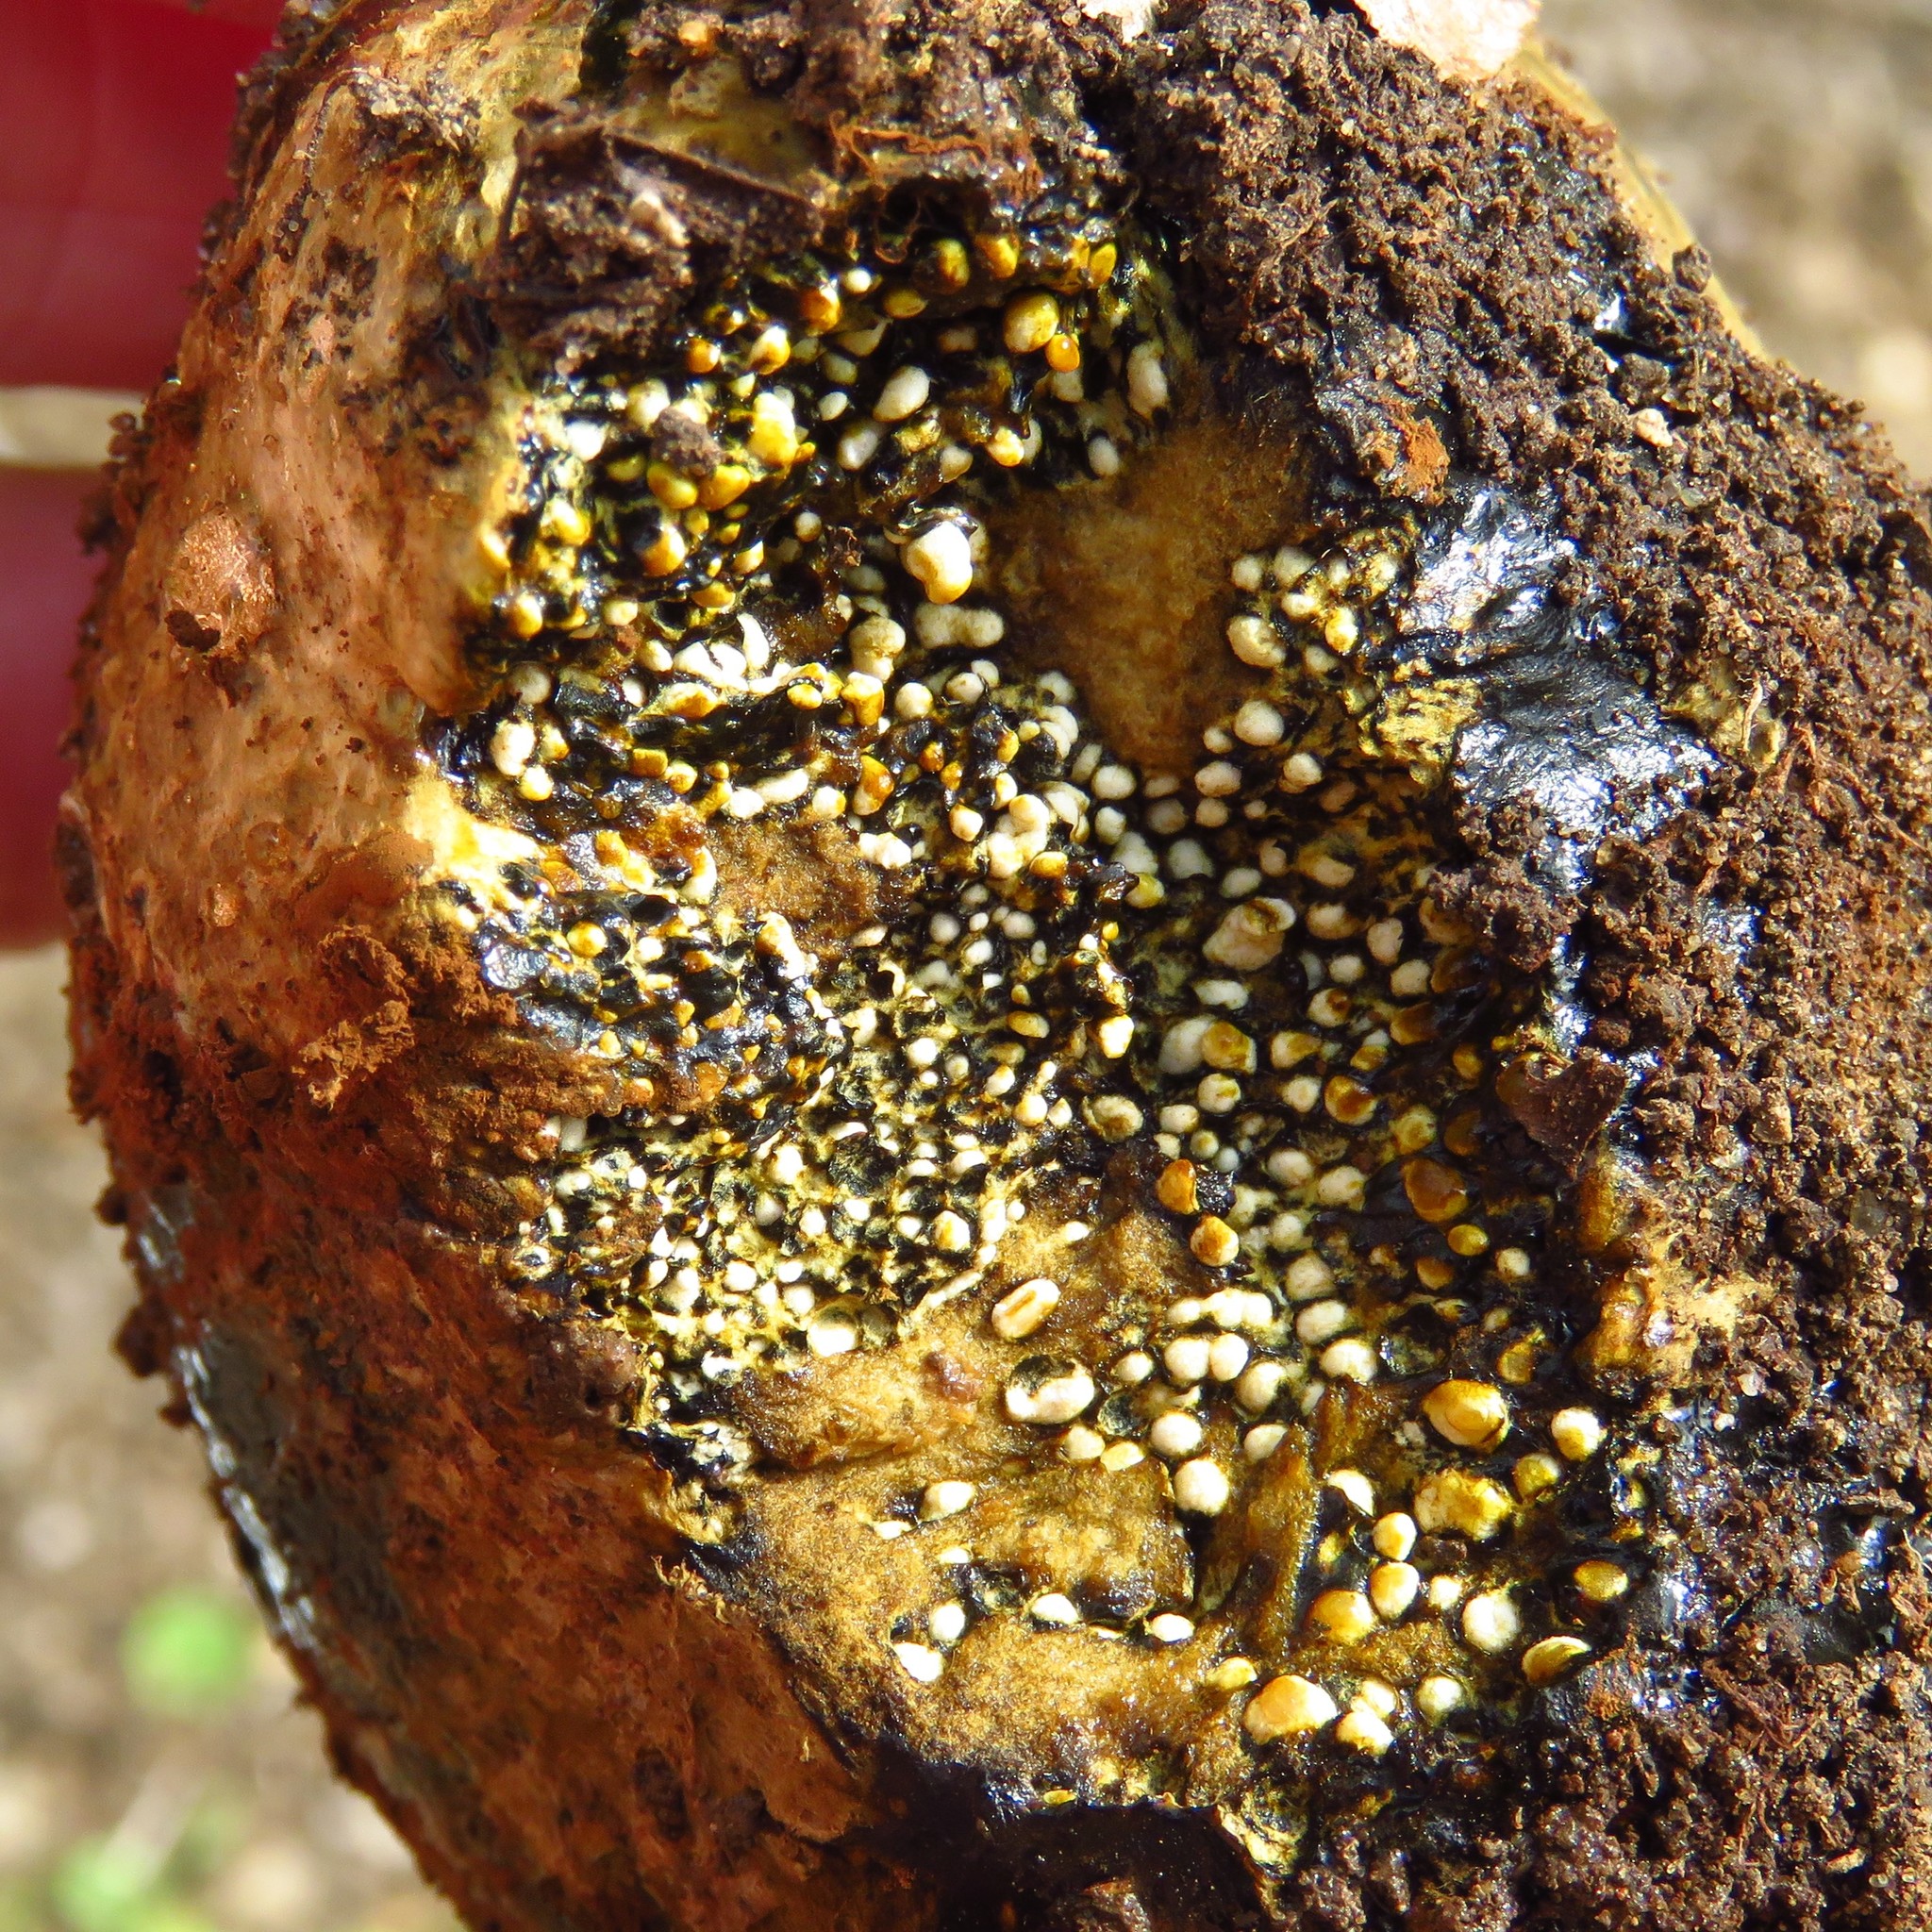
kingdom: Fungi
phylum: Basidiomycota
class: Agaricomycetes
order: Boletales
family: Sclerodermataceae
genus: Pisolithus
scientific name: Pisolithus arenarius
